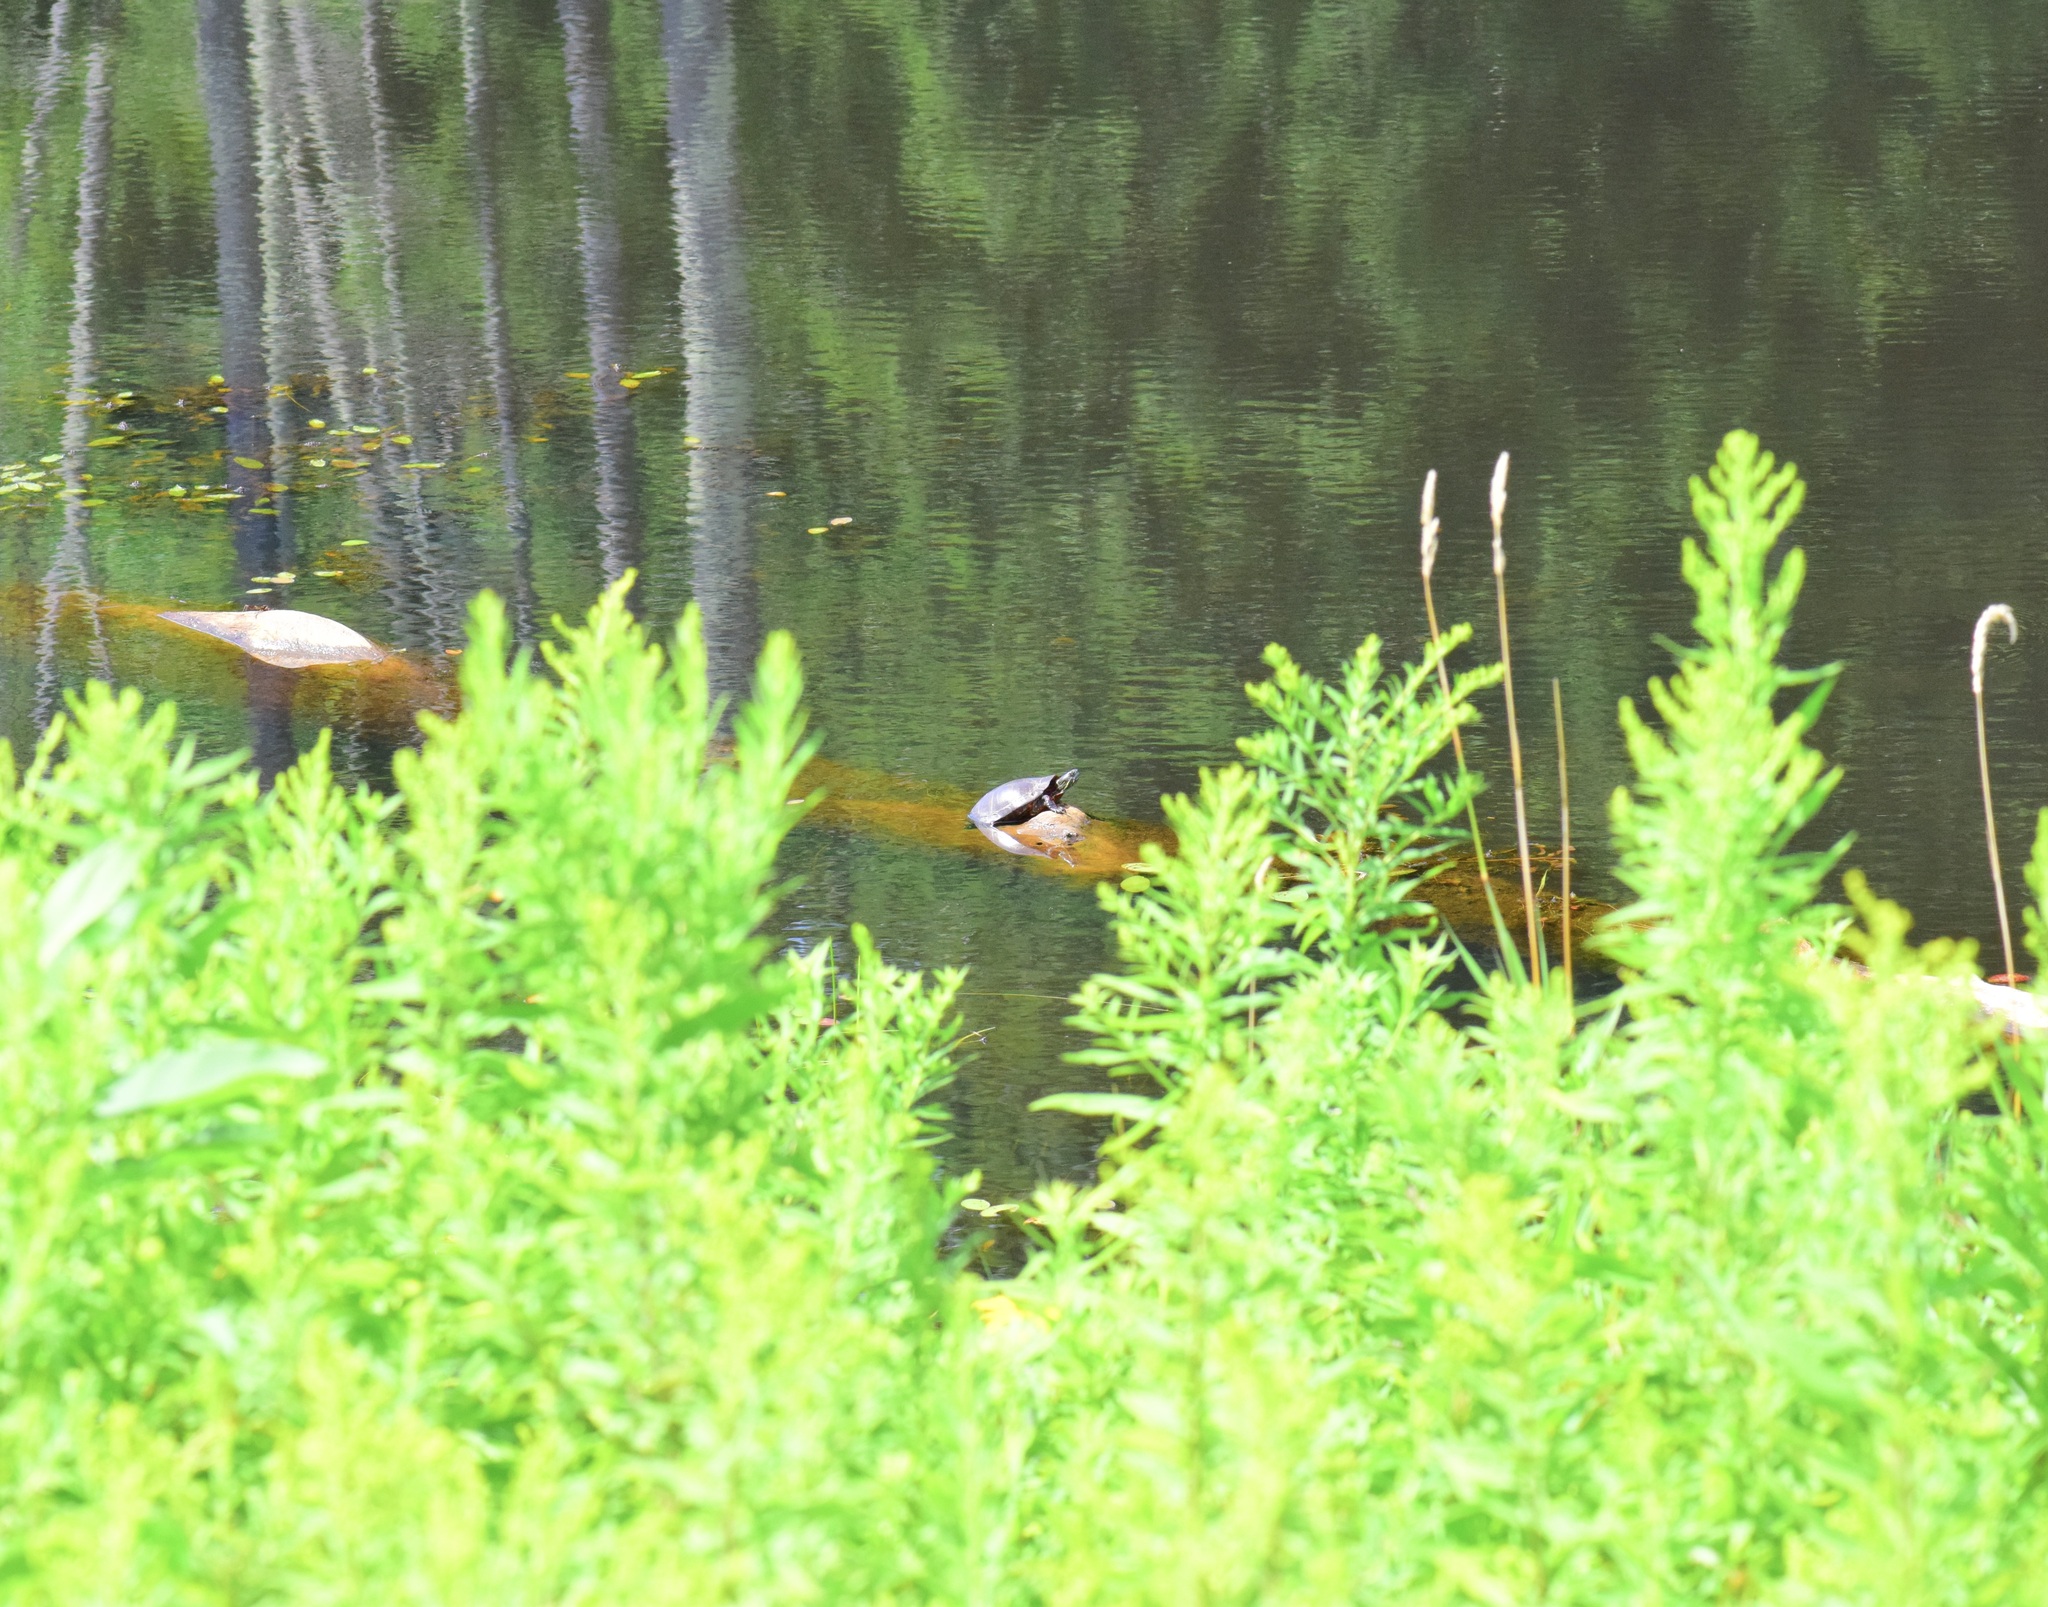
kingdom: Animalia
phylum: Chordata
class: Testudines
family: Emydidae
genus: Chrysemys
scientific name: Chrysemys picta
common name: Painted turtle
